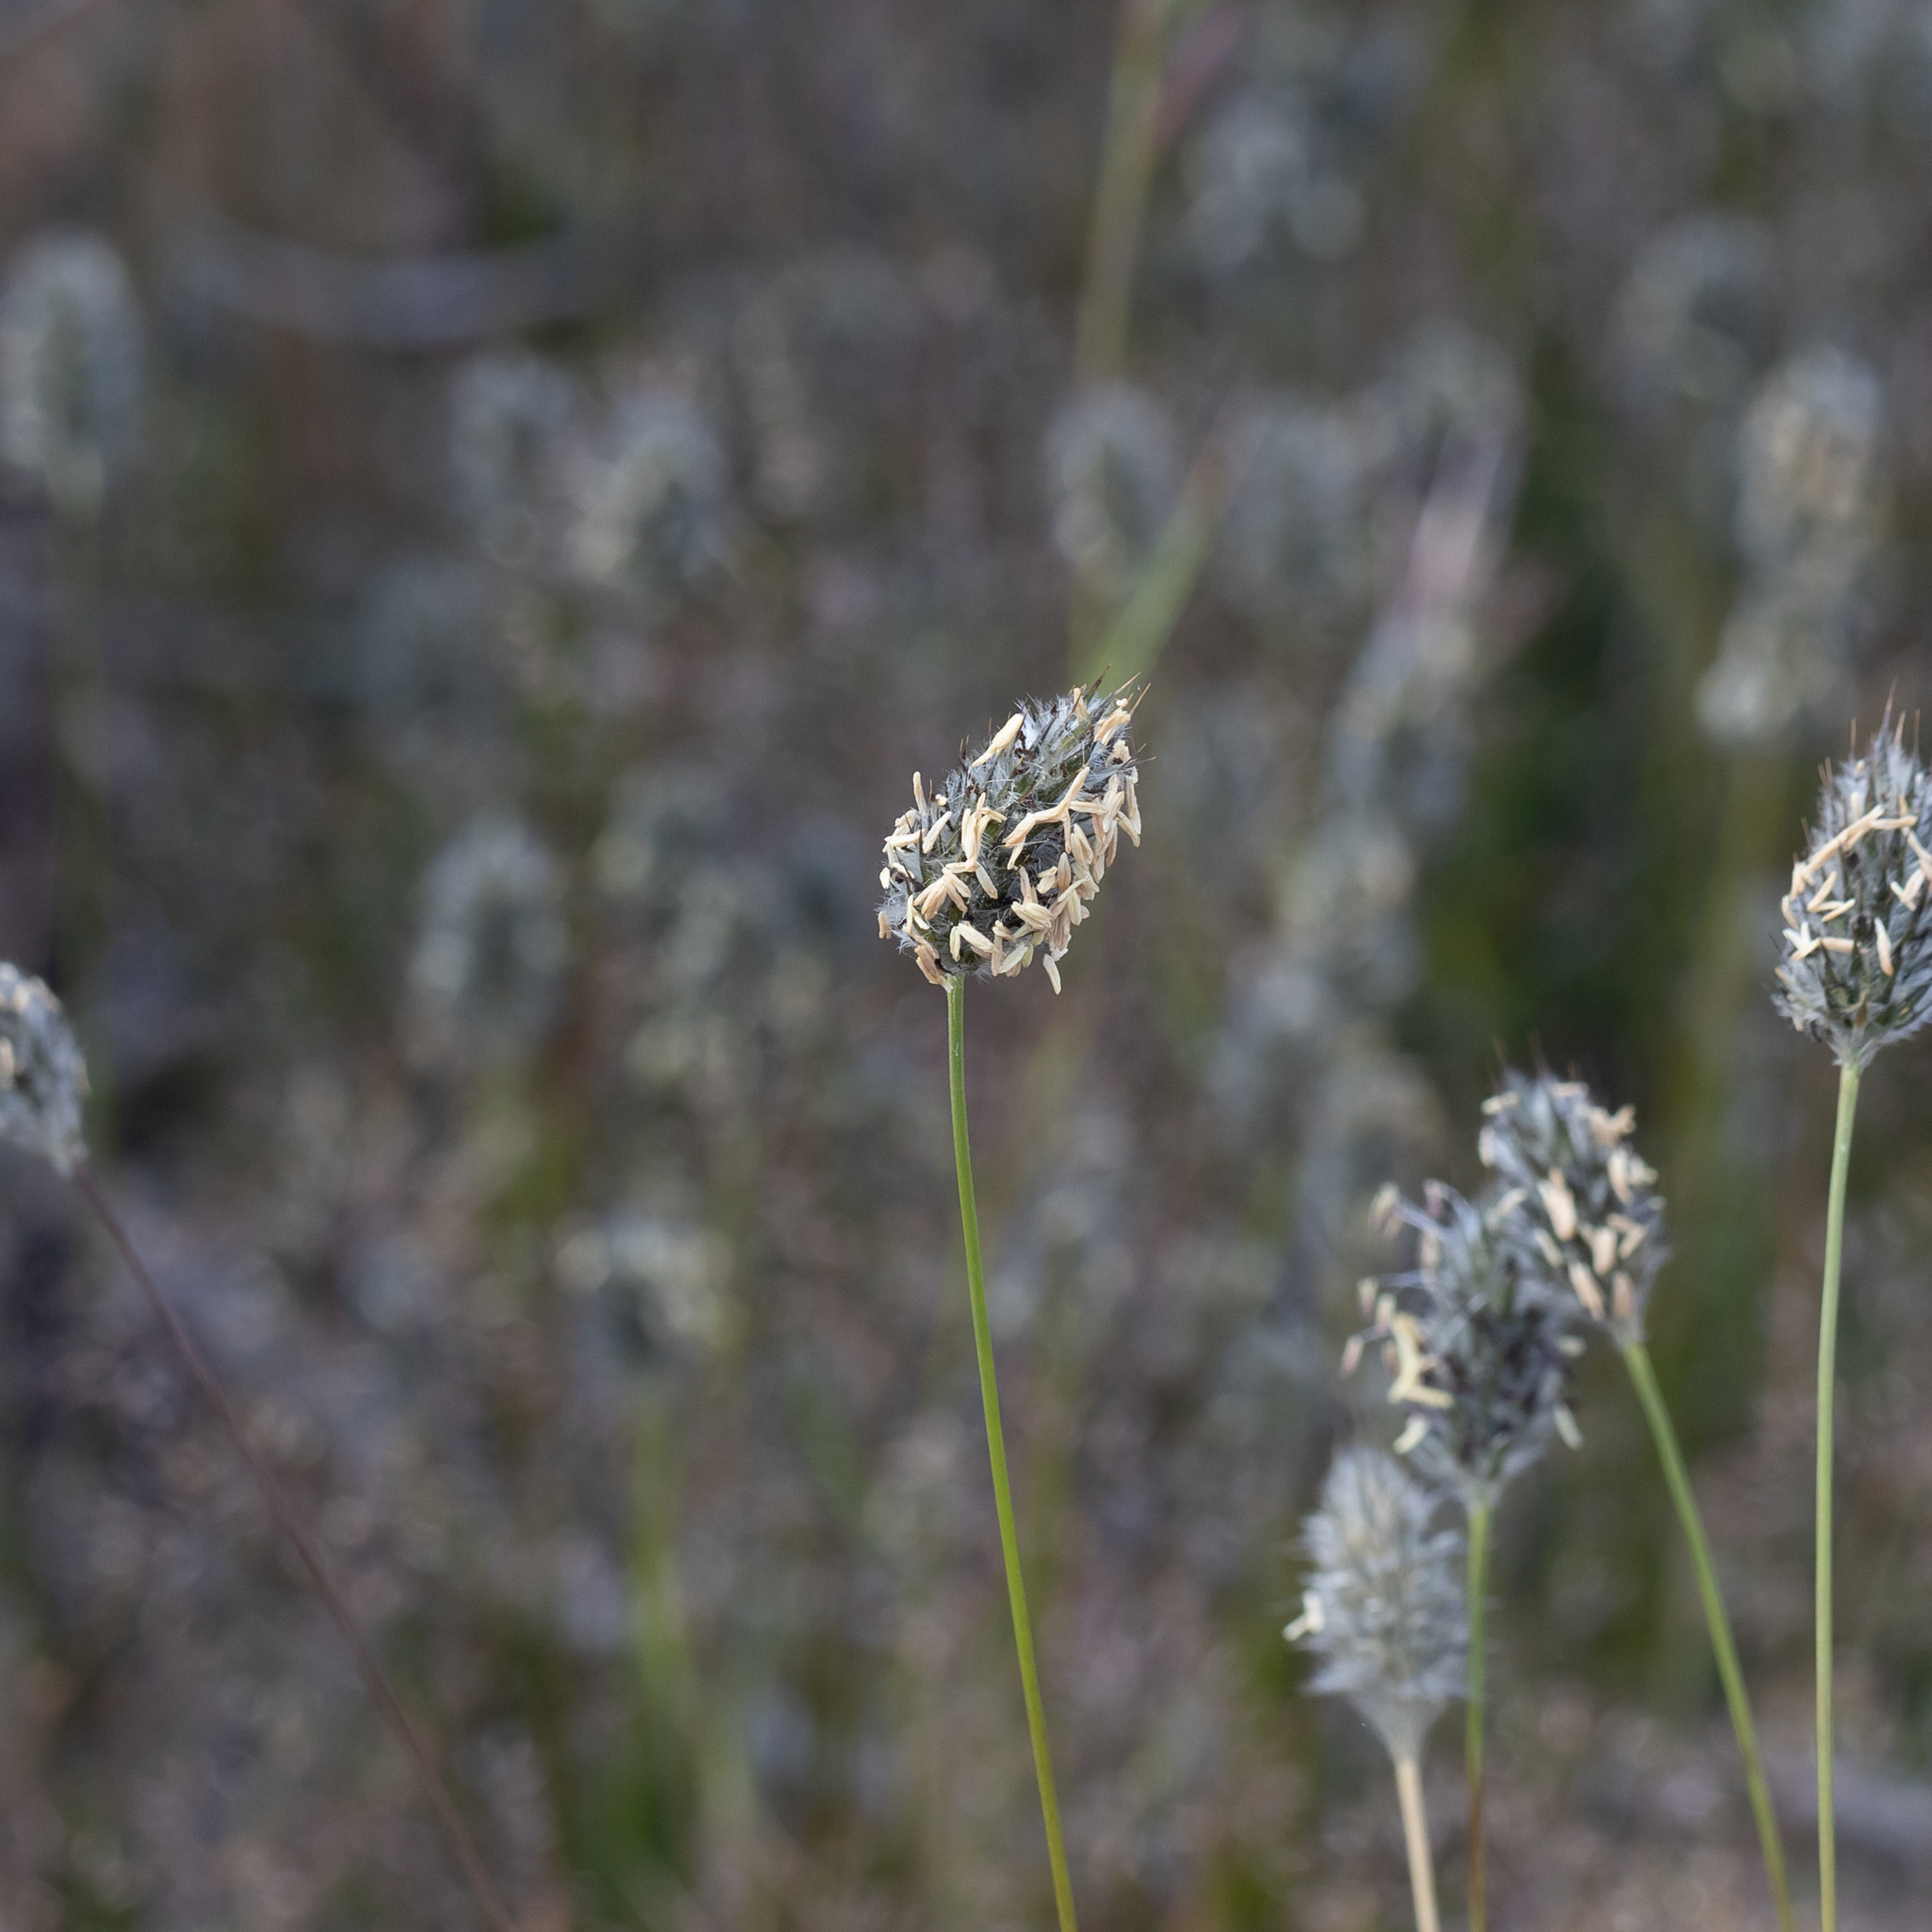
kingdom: Plantae
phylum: Tracheophyta
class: Liliopsida
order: Poales
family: Poaceae
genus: Neurachne
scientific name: Neurachne alopecuroidea
